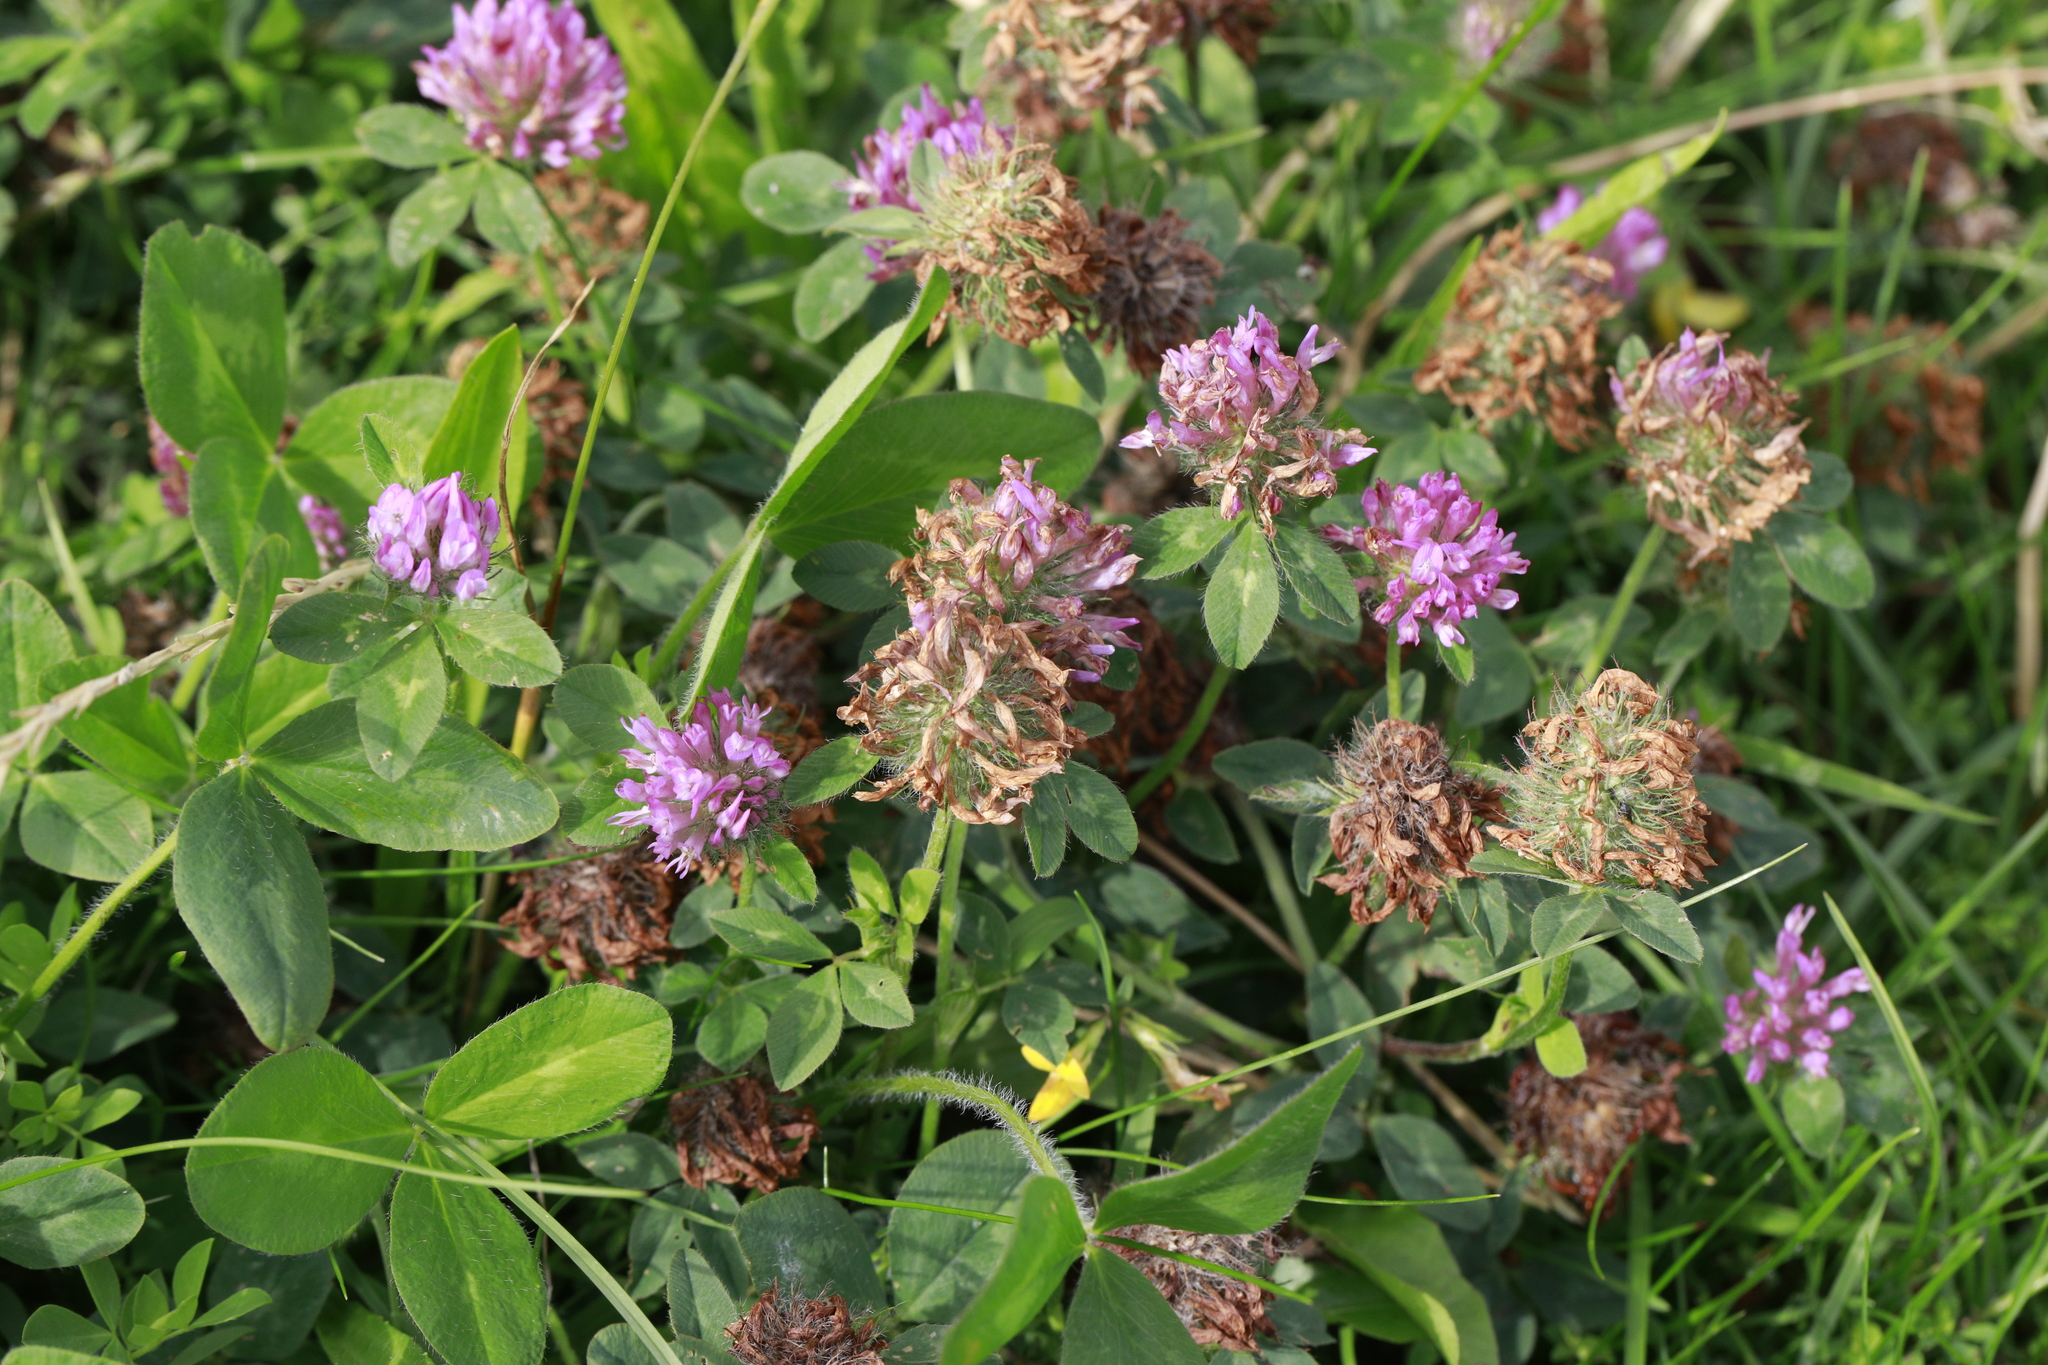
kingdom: Plantae
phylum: Tracheophyta
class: Magnoliopsida
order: Fabales
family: Fabaceae
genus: Trifolium
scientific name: Trifolium pratense
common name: Red clover
